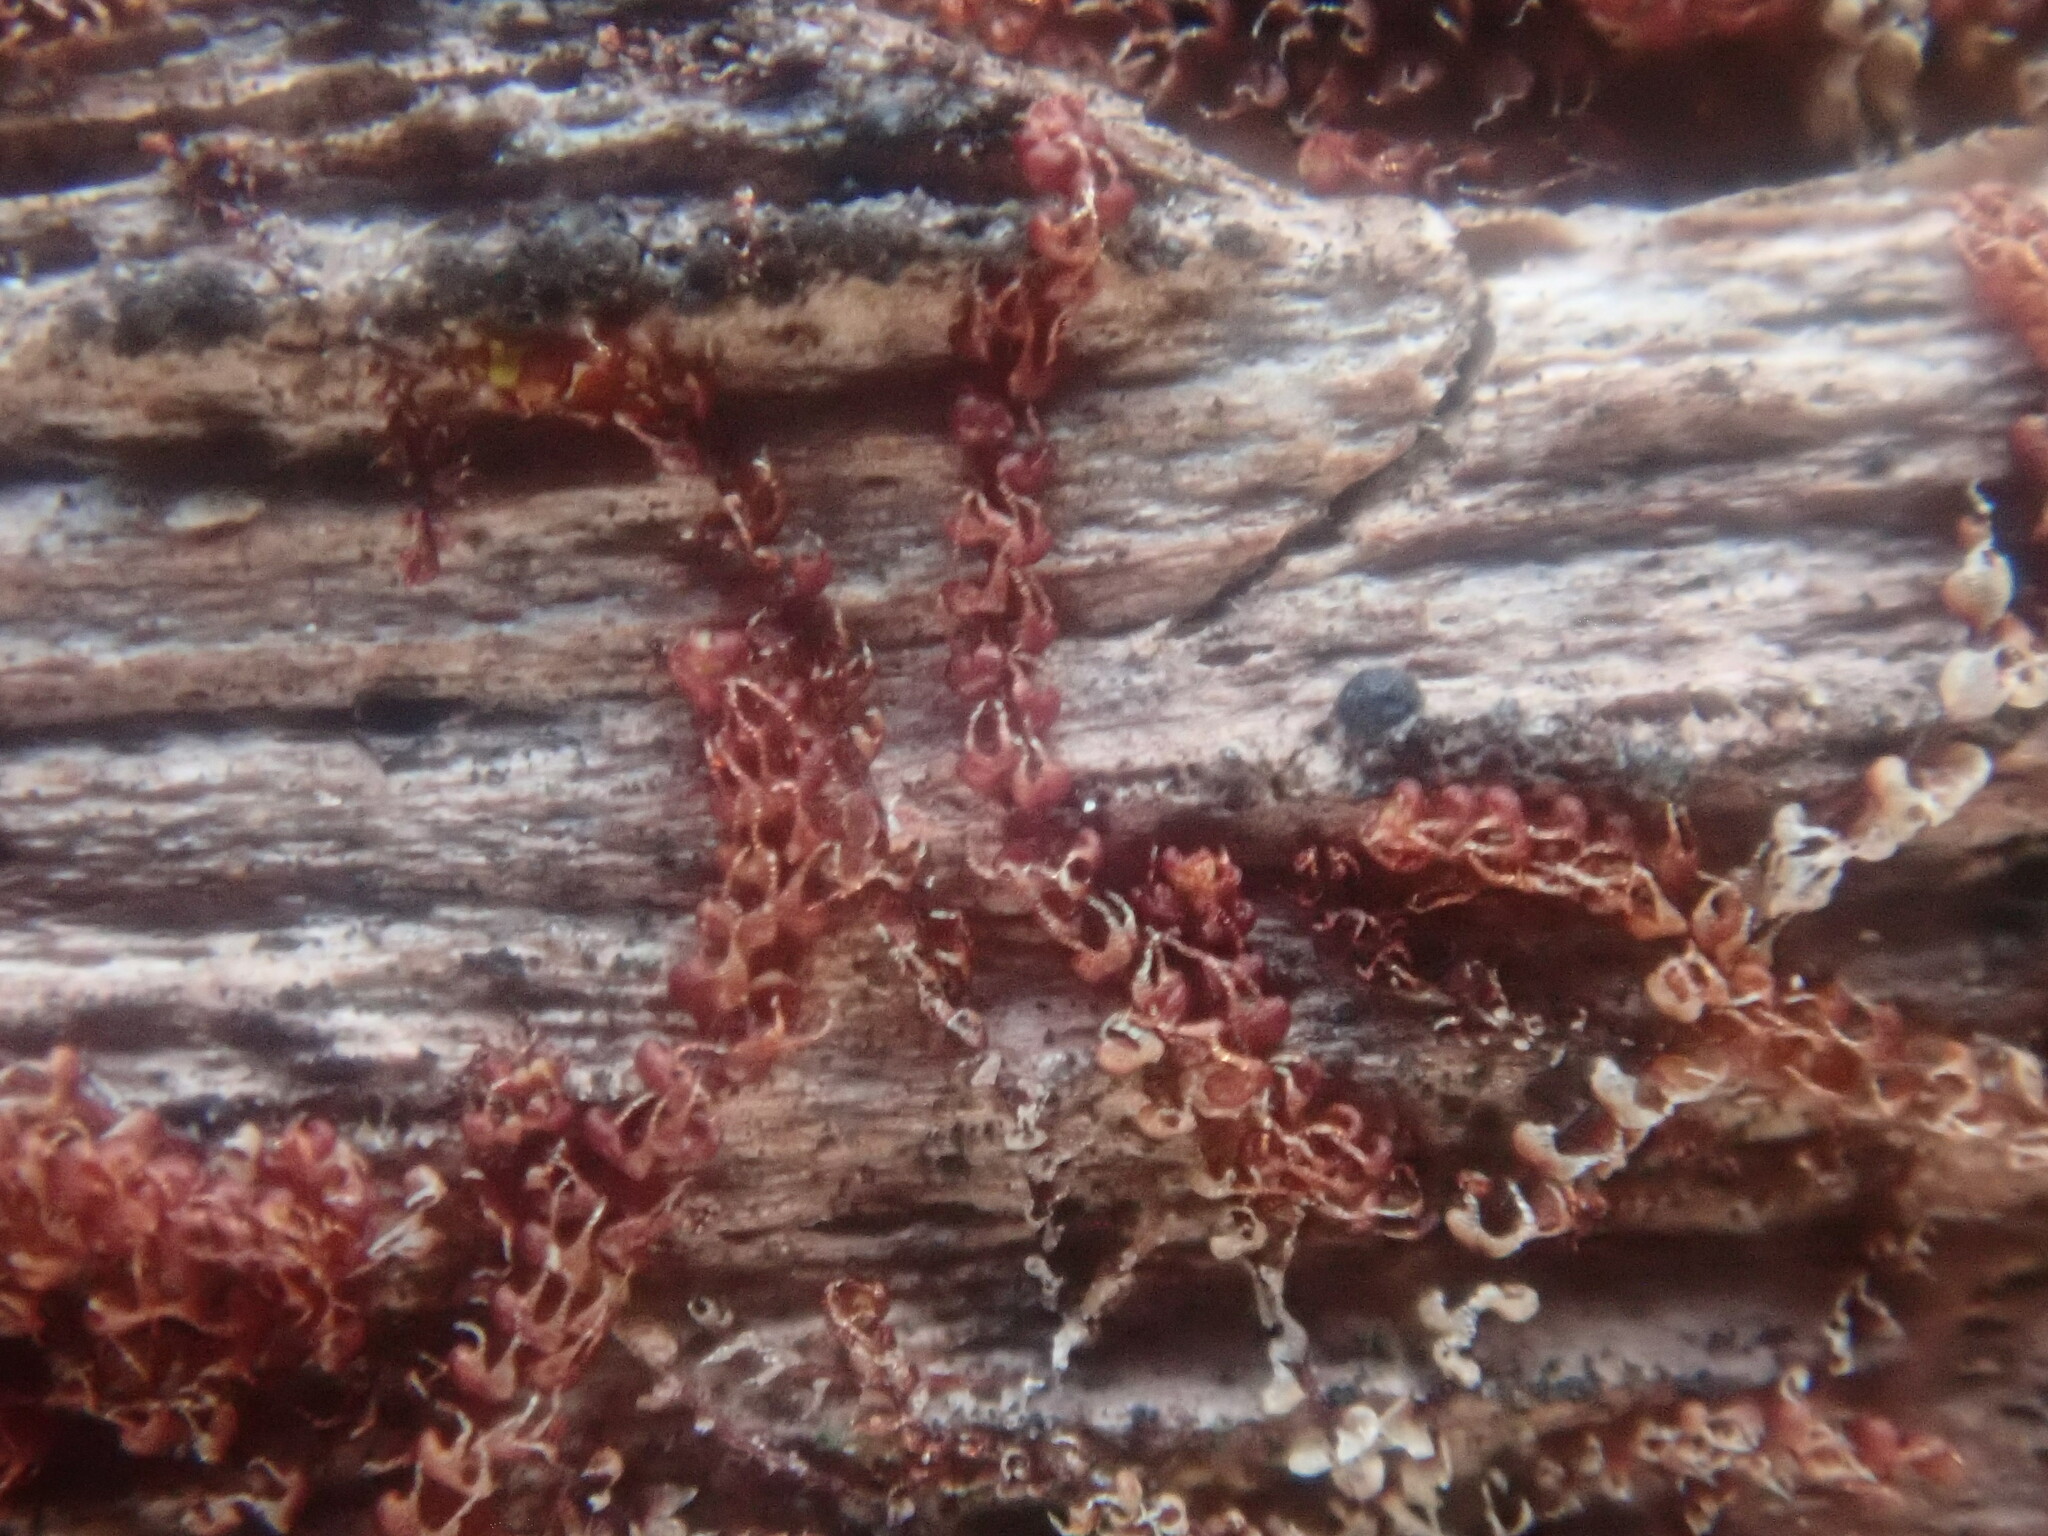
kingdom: Plantae
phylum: Marchantiophyta
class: Jungermanniopsida
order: Jungermanniales
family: Cephaloziaceae
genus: Nowellia
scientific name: Nowellia curvifolia
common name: Wood rustwort
